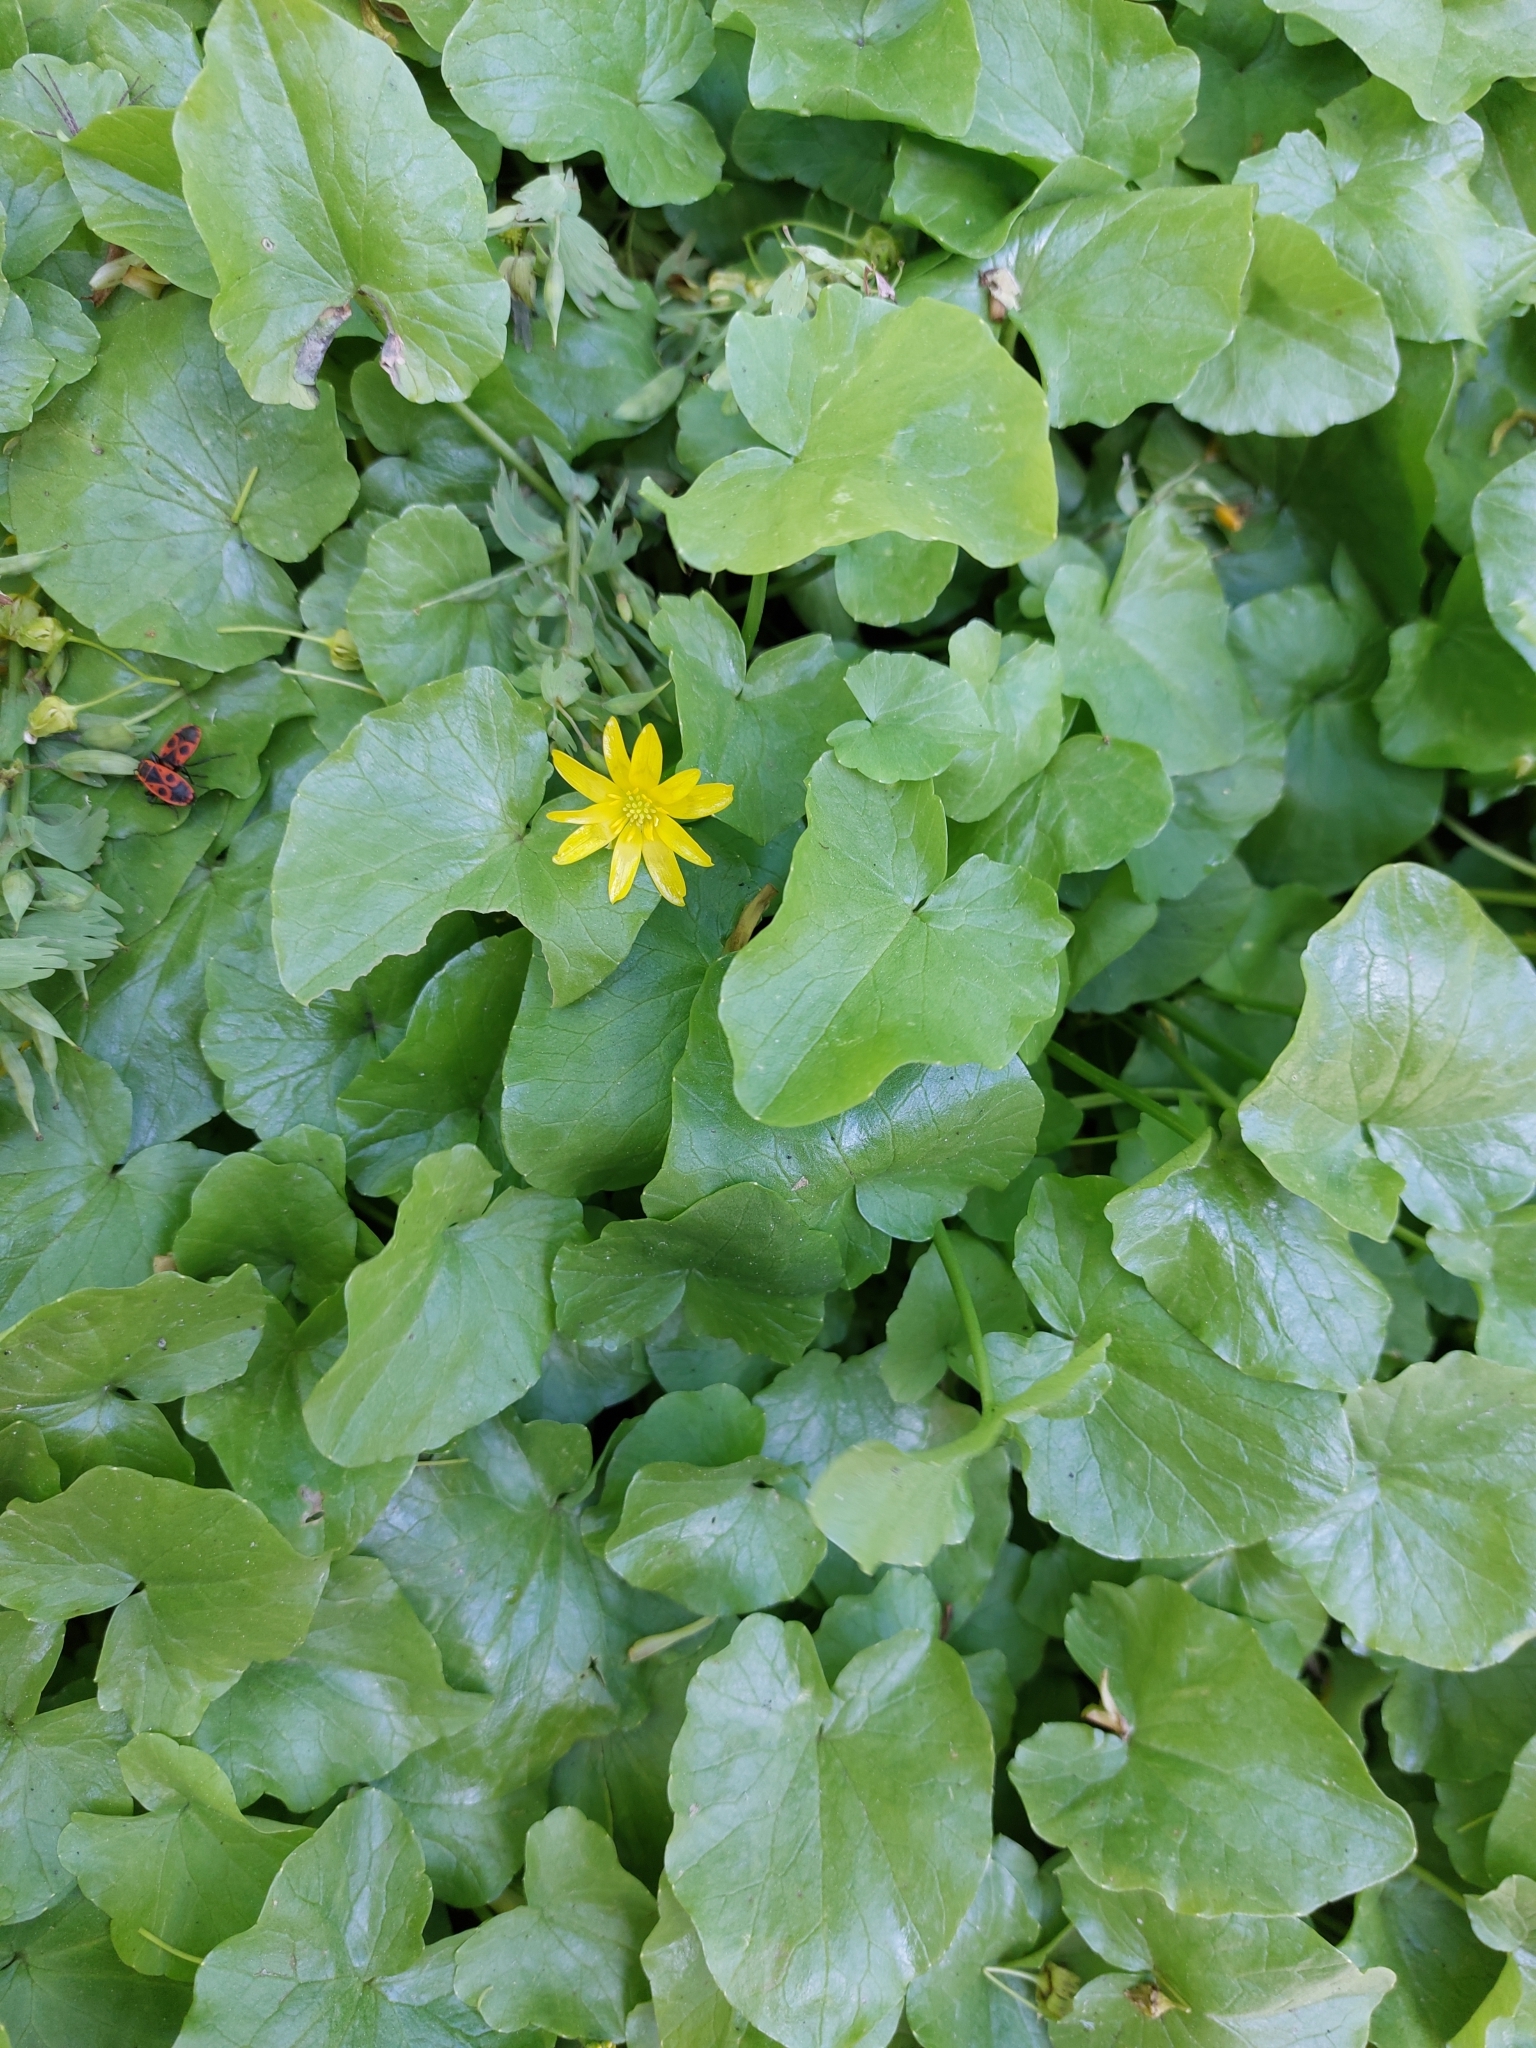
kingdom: Plantae
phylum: Tracheophyta
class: Magnoliopsida
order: Ranunculales
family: Ranunculaceae
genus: Ficaria
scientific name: Ficaria verna
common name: Lesser celandine
